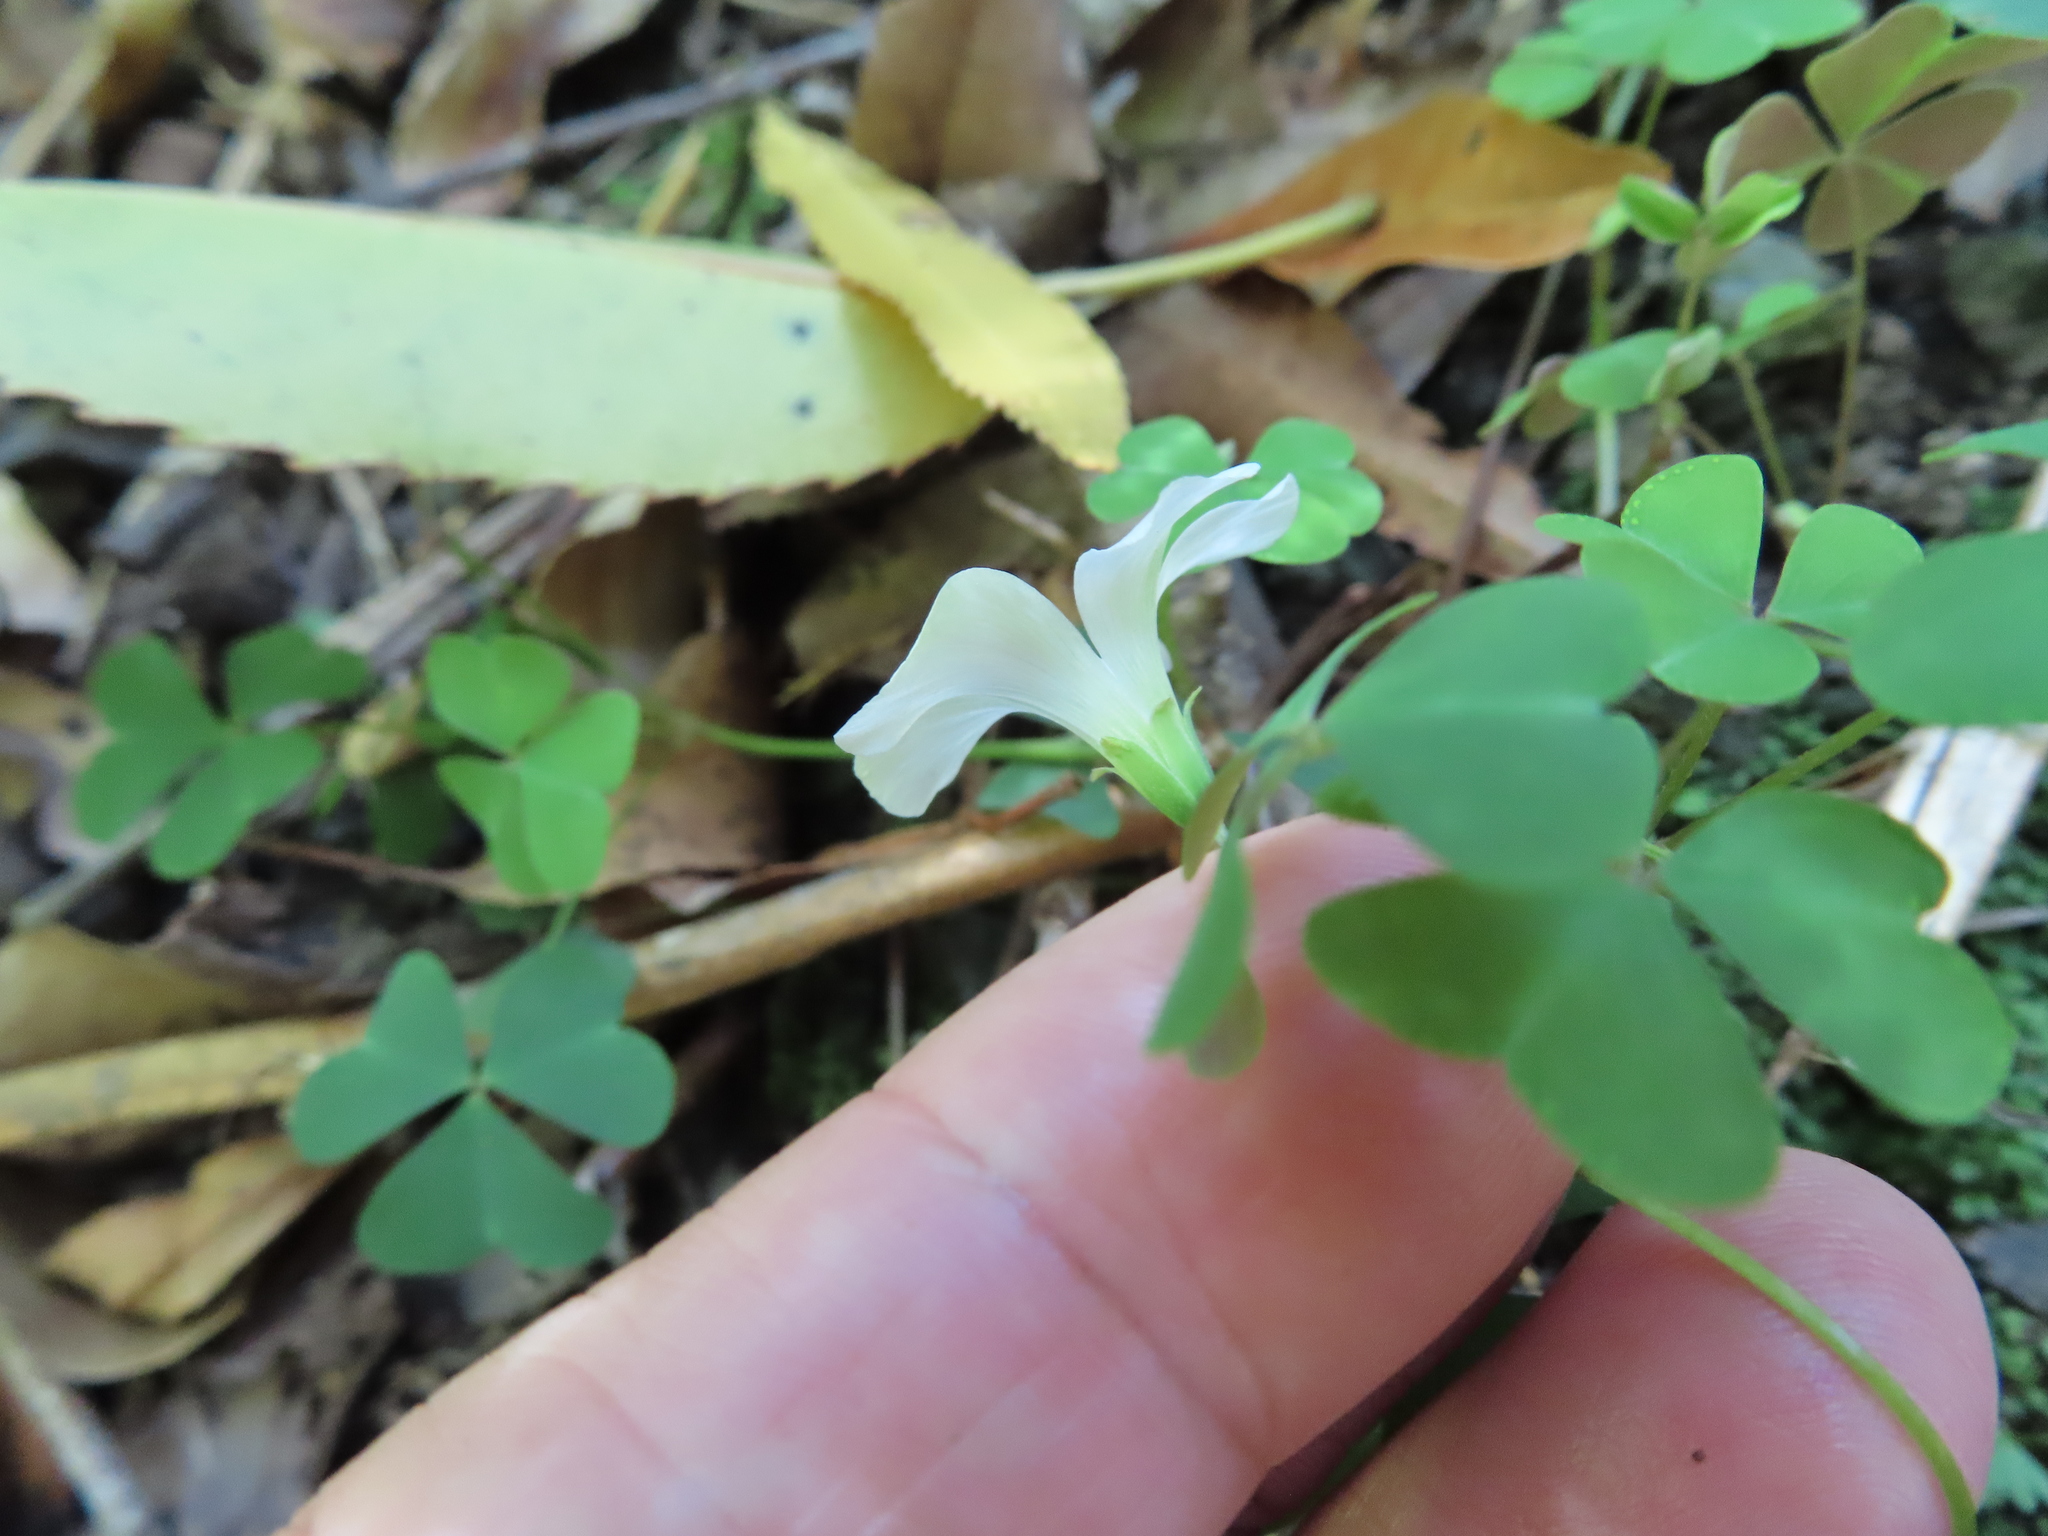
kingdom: Plantae
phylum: Tracheophyta
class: Magnoliopsida
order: Oxalidales
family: Oxalidaceae
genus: Oxalis
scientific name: Oxalis incarnata
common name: Pale pink-sorrel
